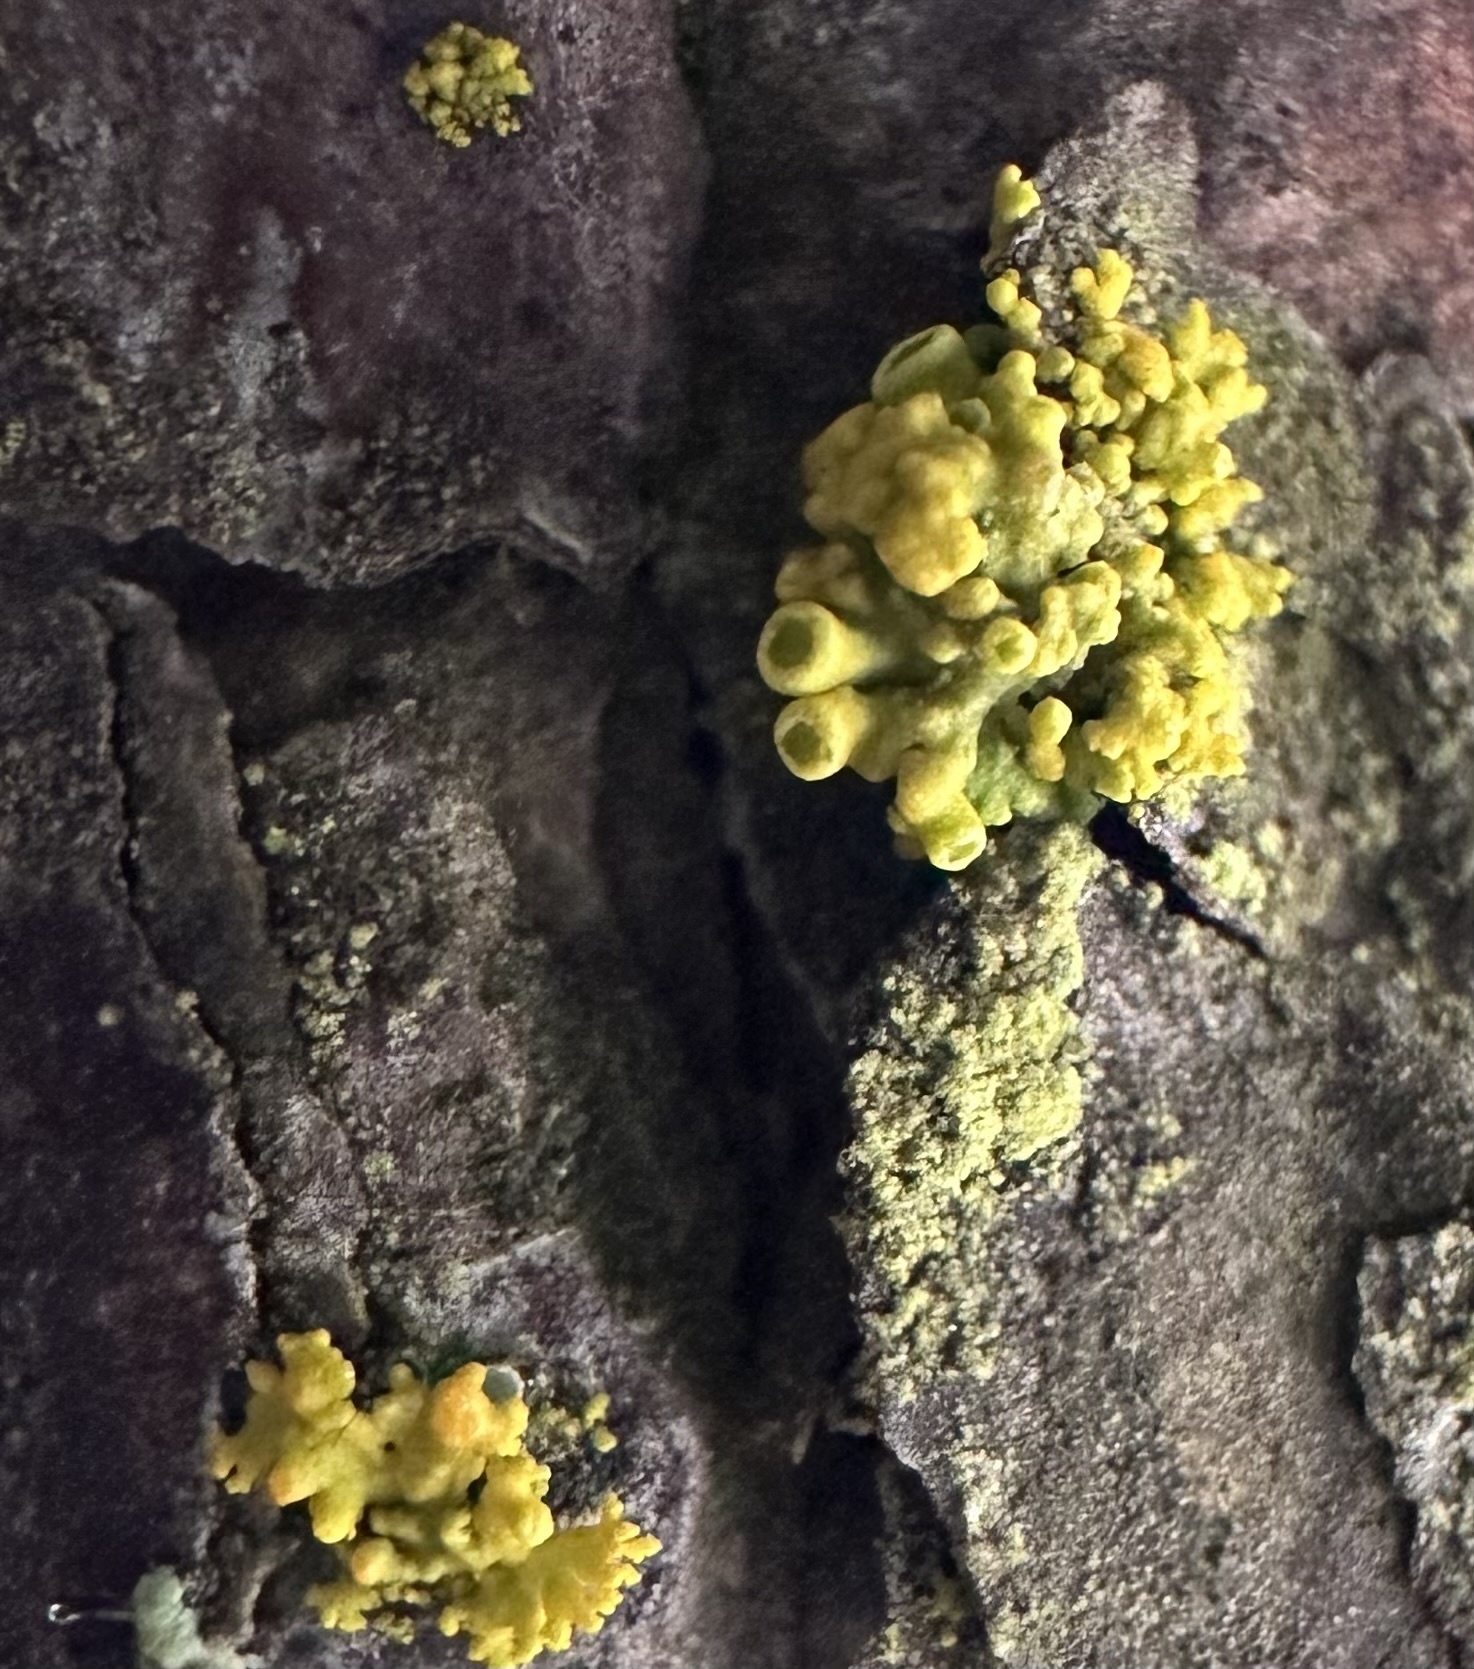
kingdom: Fungi
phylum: Ascomycota
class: Lecanoromycetes
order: Teloschistales
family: Teloschistaceae
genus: Polycauliona
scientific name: Polycauliona polycarpa
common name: Pin-cushion sunburst lichen
